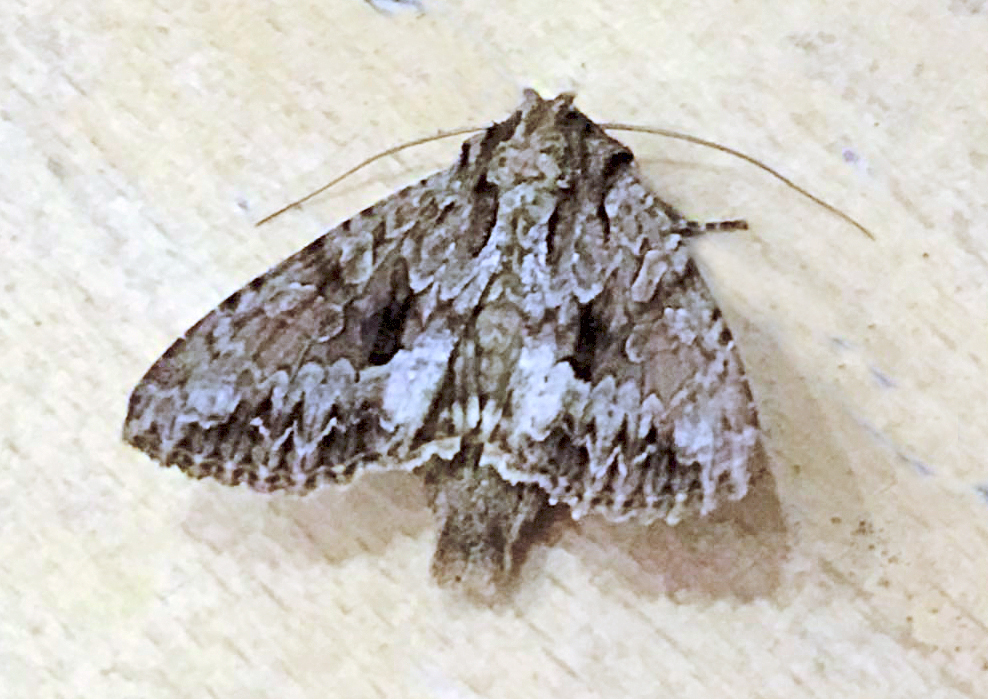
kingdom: Animalia
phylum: Arthropoda
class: Insecta
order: Lepidoptera
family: Noctuidae
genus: Apamea
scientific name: Apamea monoglypha
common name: Dark arches
